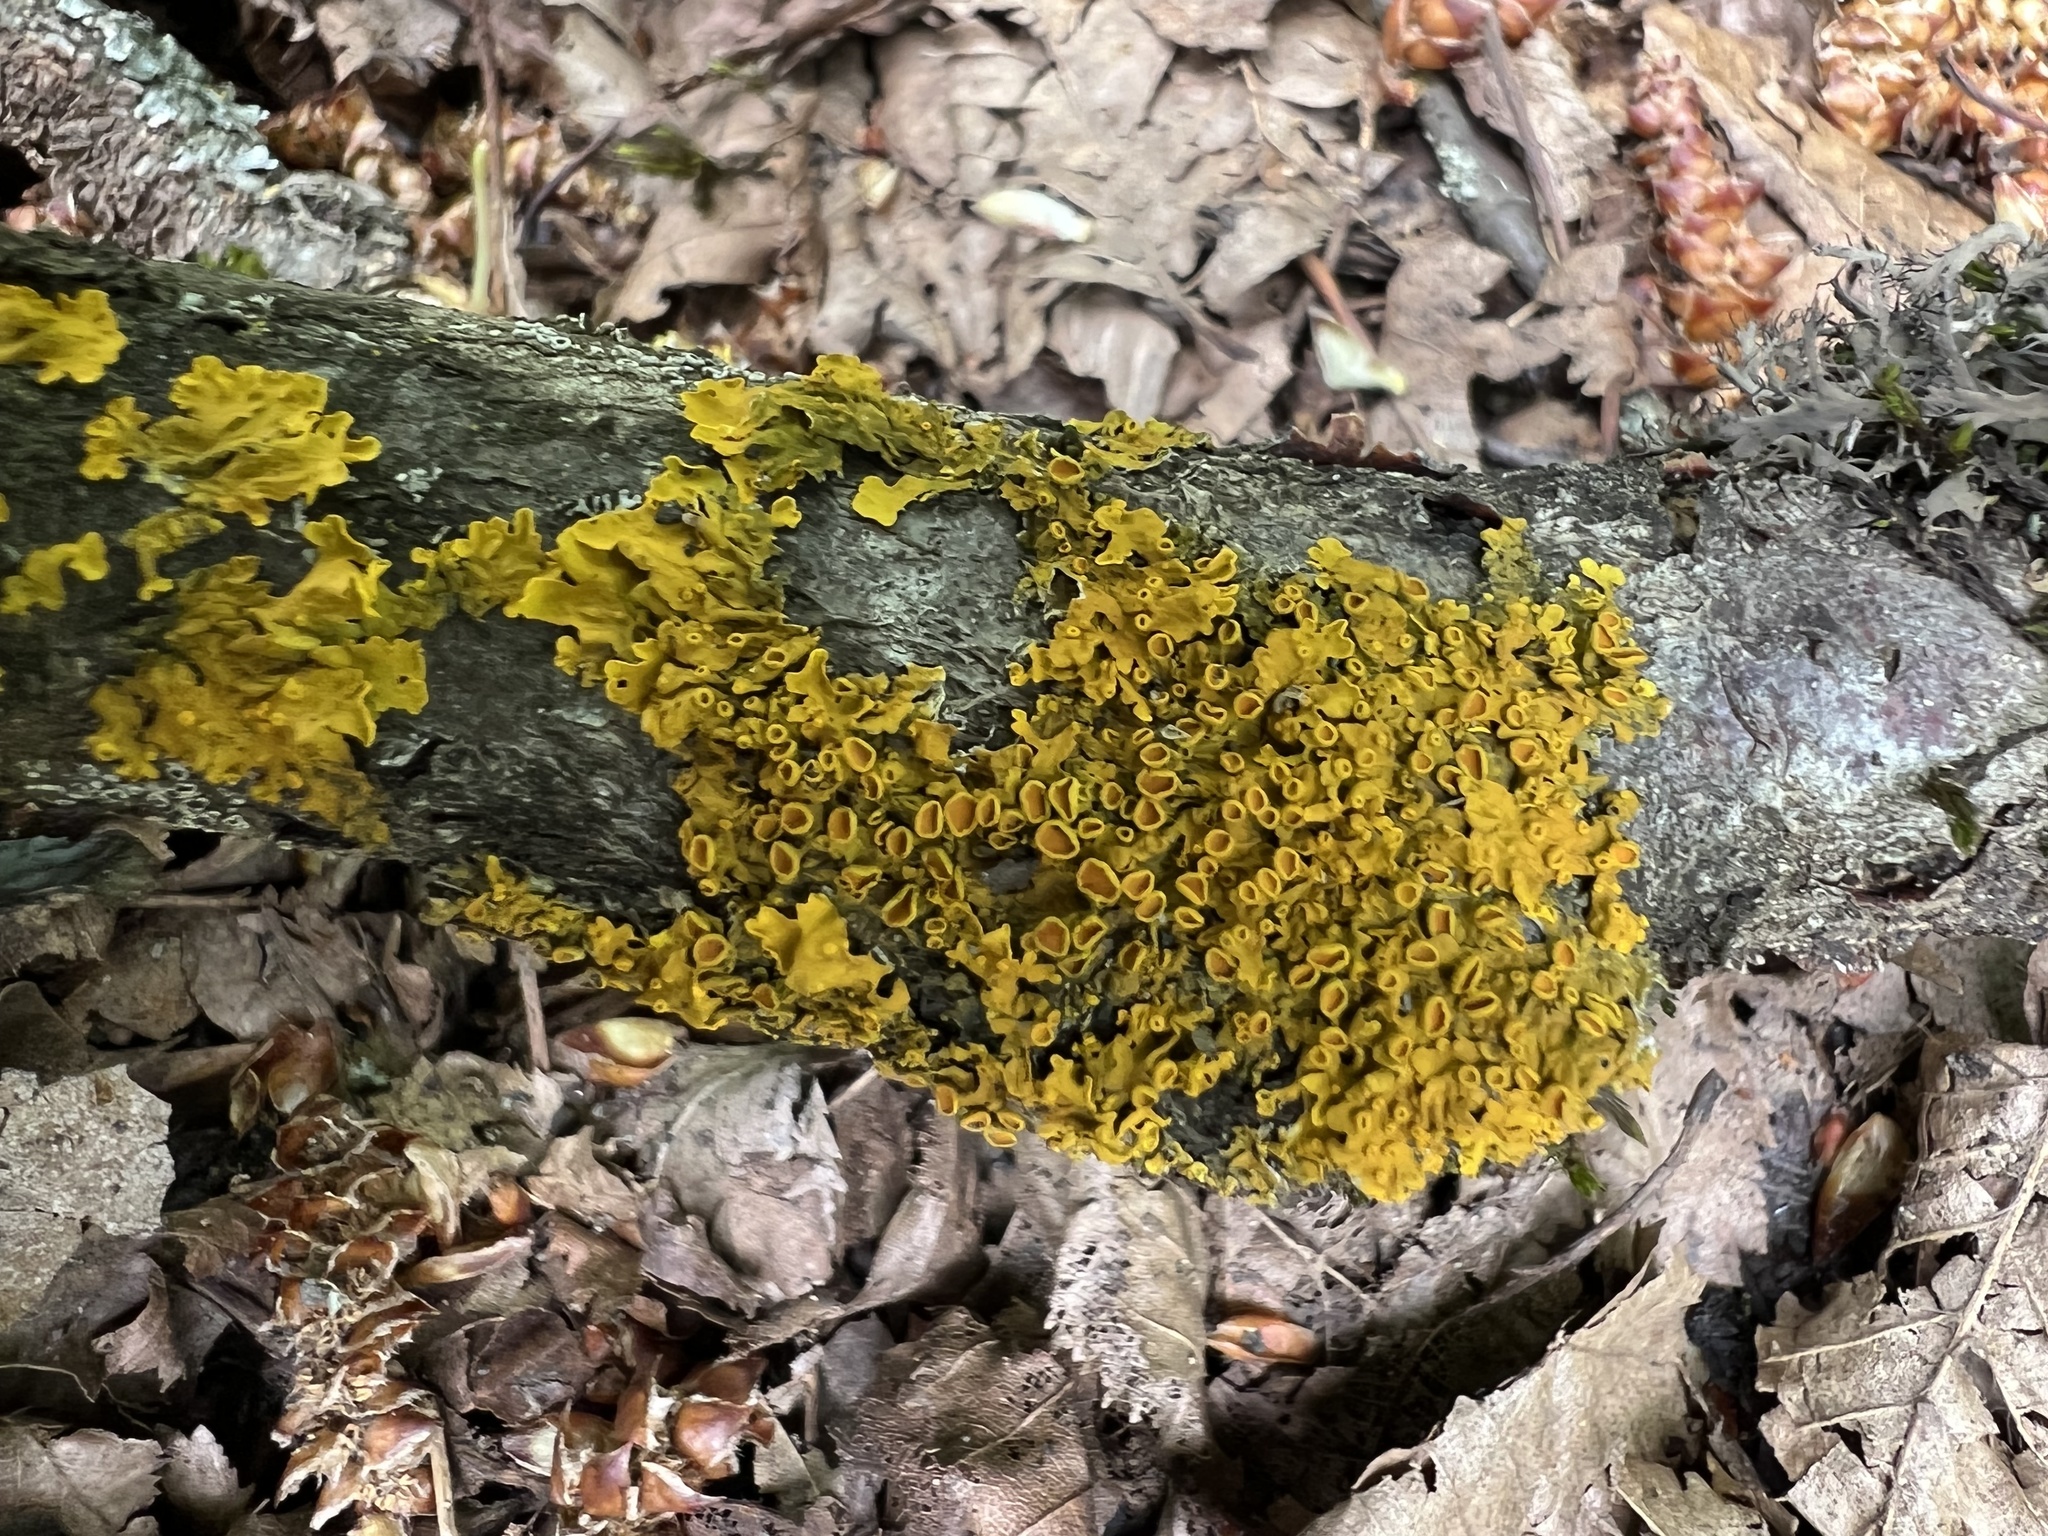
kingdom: Fungi
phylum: Ascomycota
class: Lecanoromycetes
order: Teloschistales
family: Teloschistaceae
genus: Xanthoria
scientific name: Xanthoria parietina
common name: Common orange lichen
